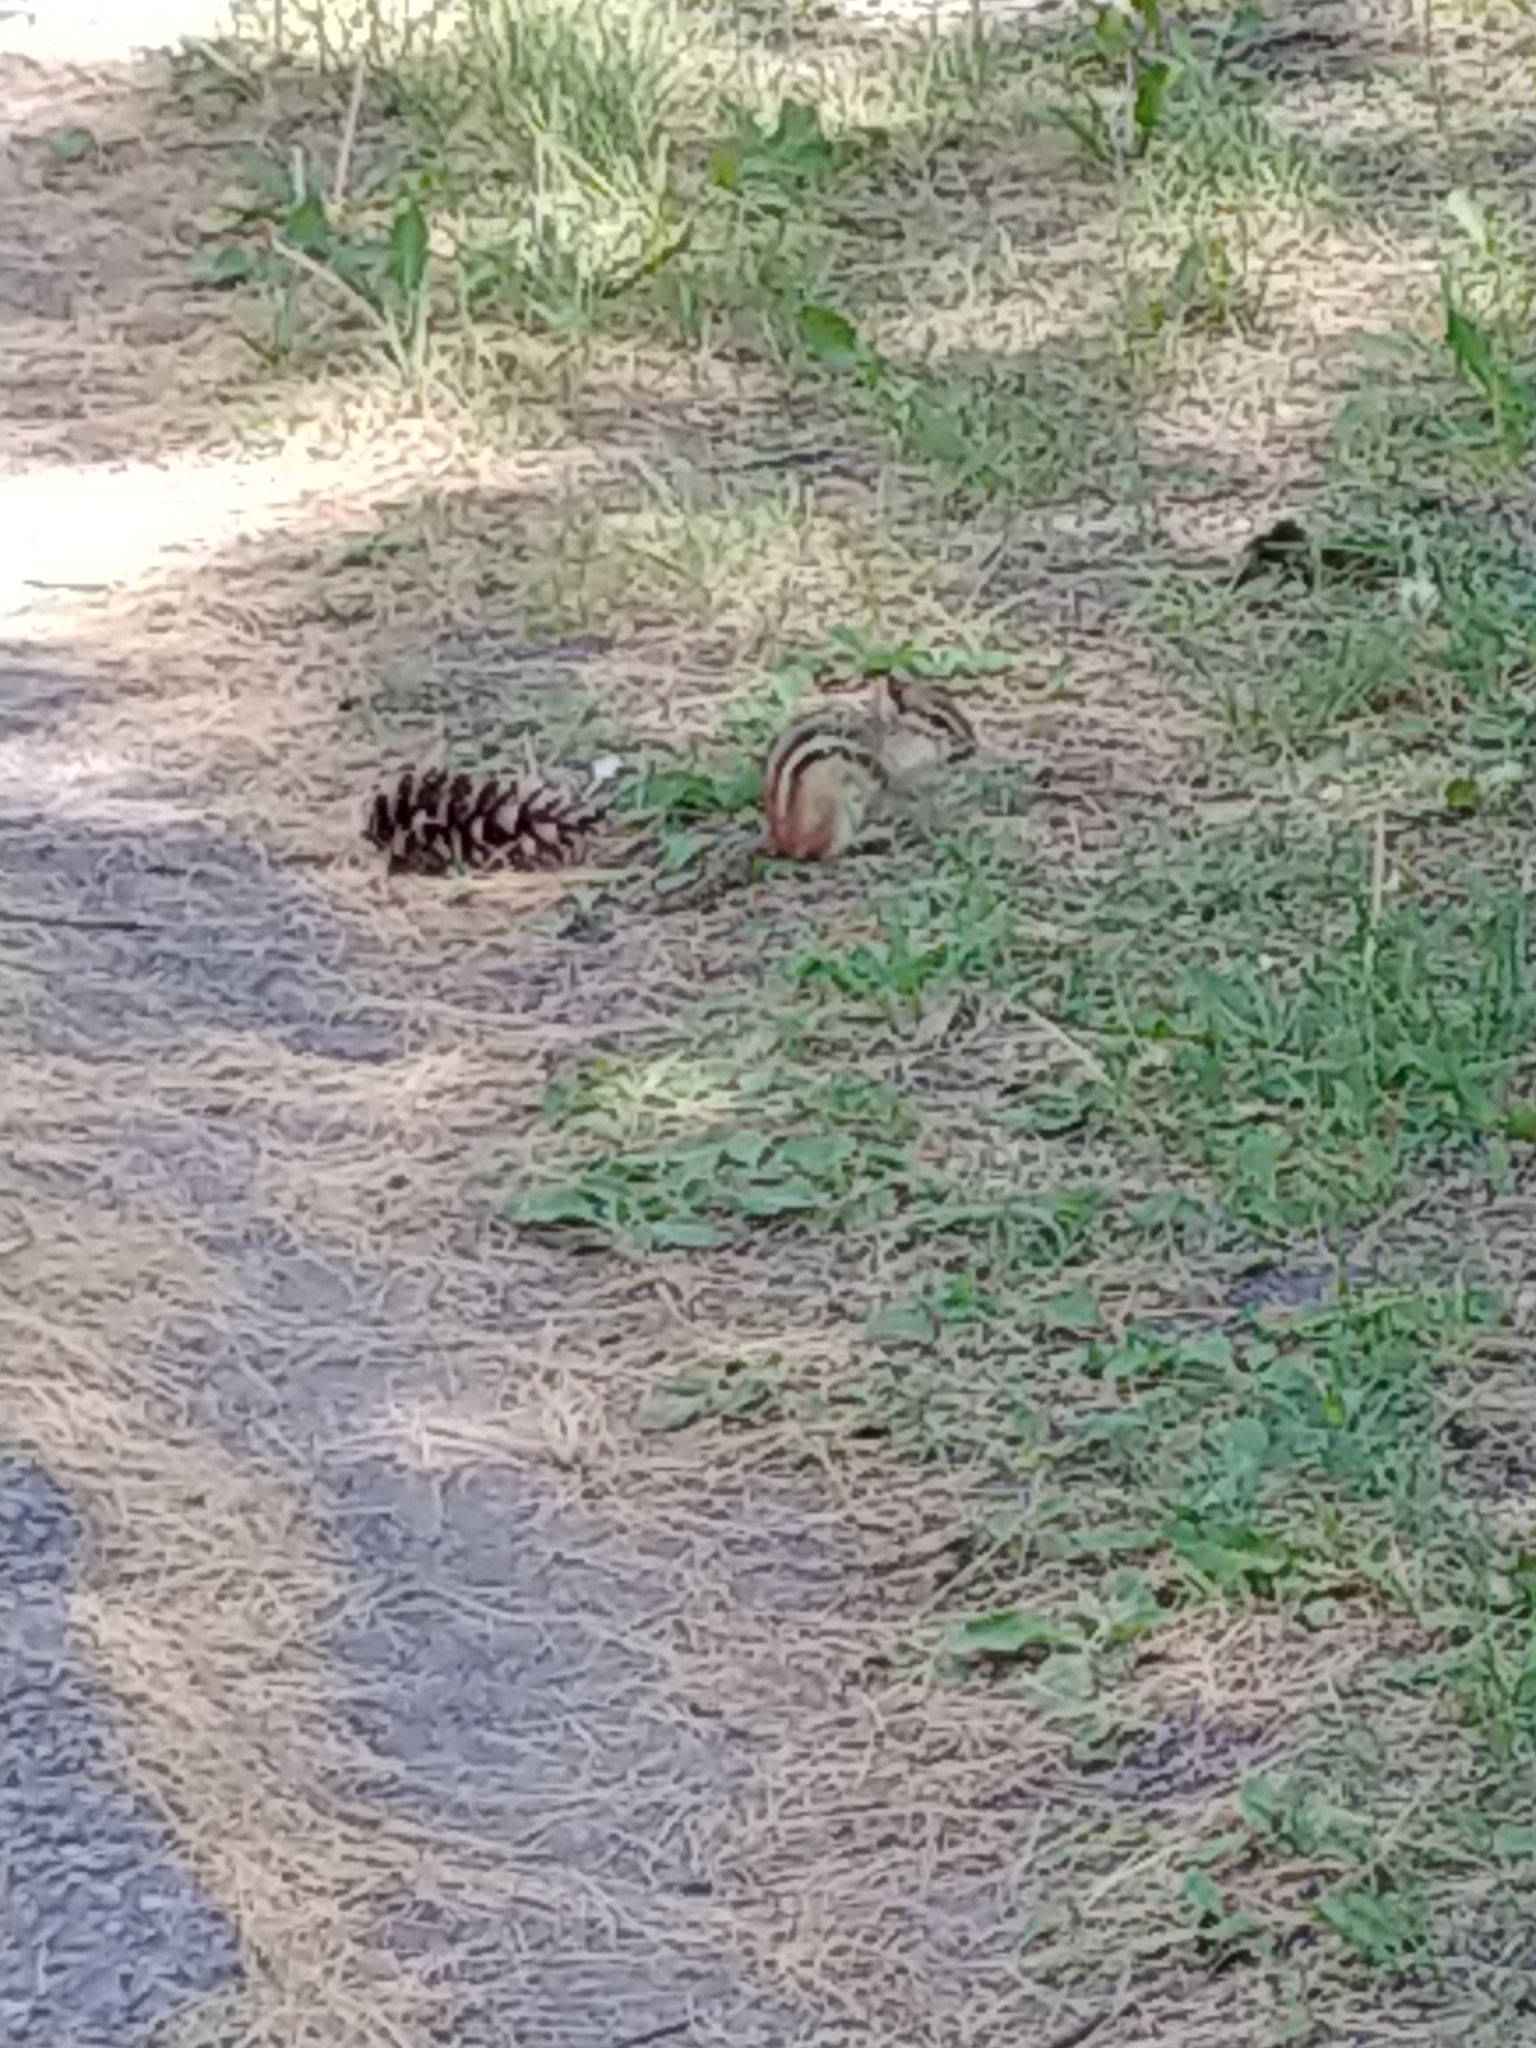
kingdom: Animalia
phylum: Chordata
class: Mammalia
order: Rodentia
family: Sciuridae
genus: Tamias
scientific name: Tamias striatus
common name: Eastern chipmunk
